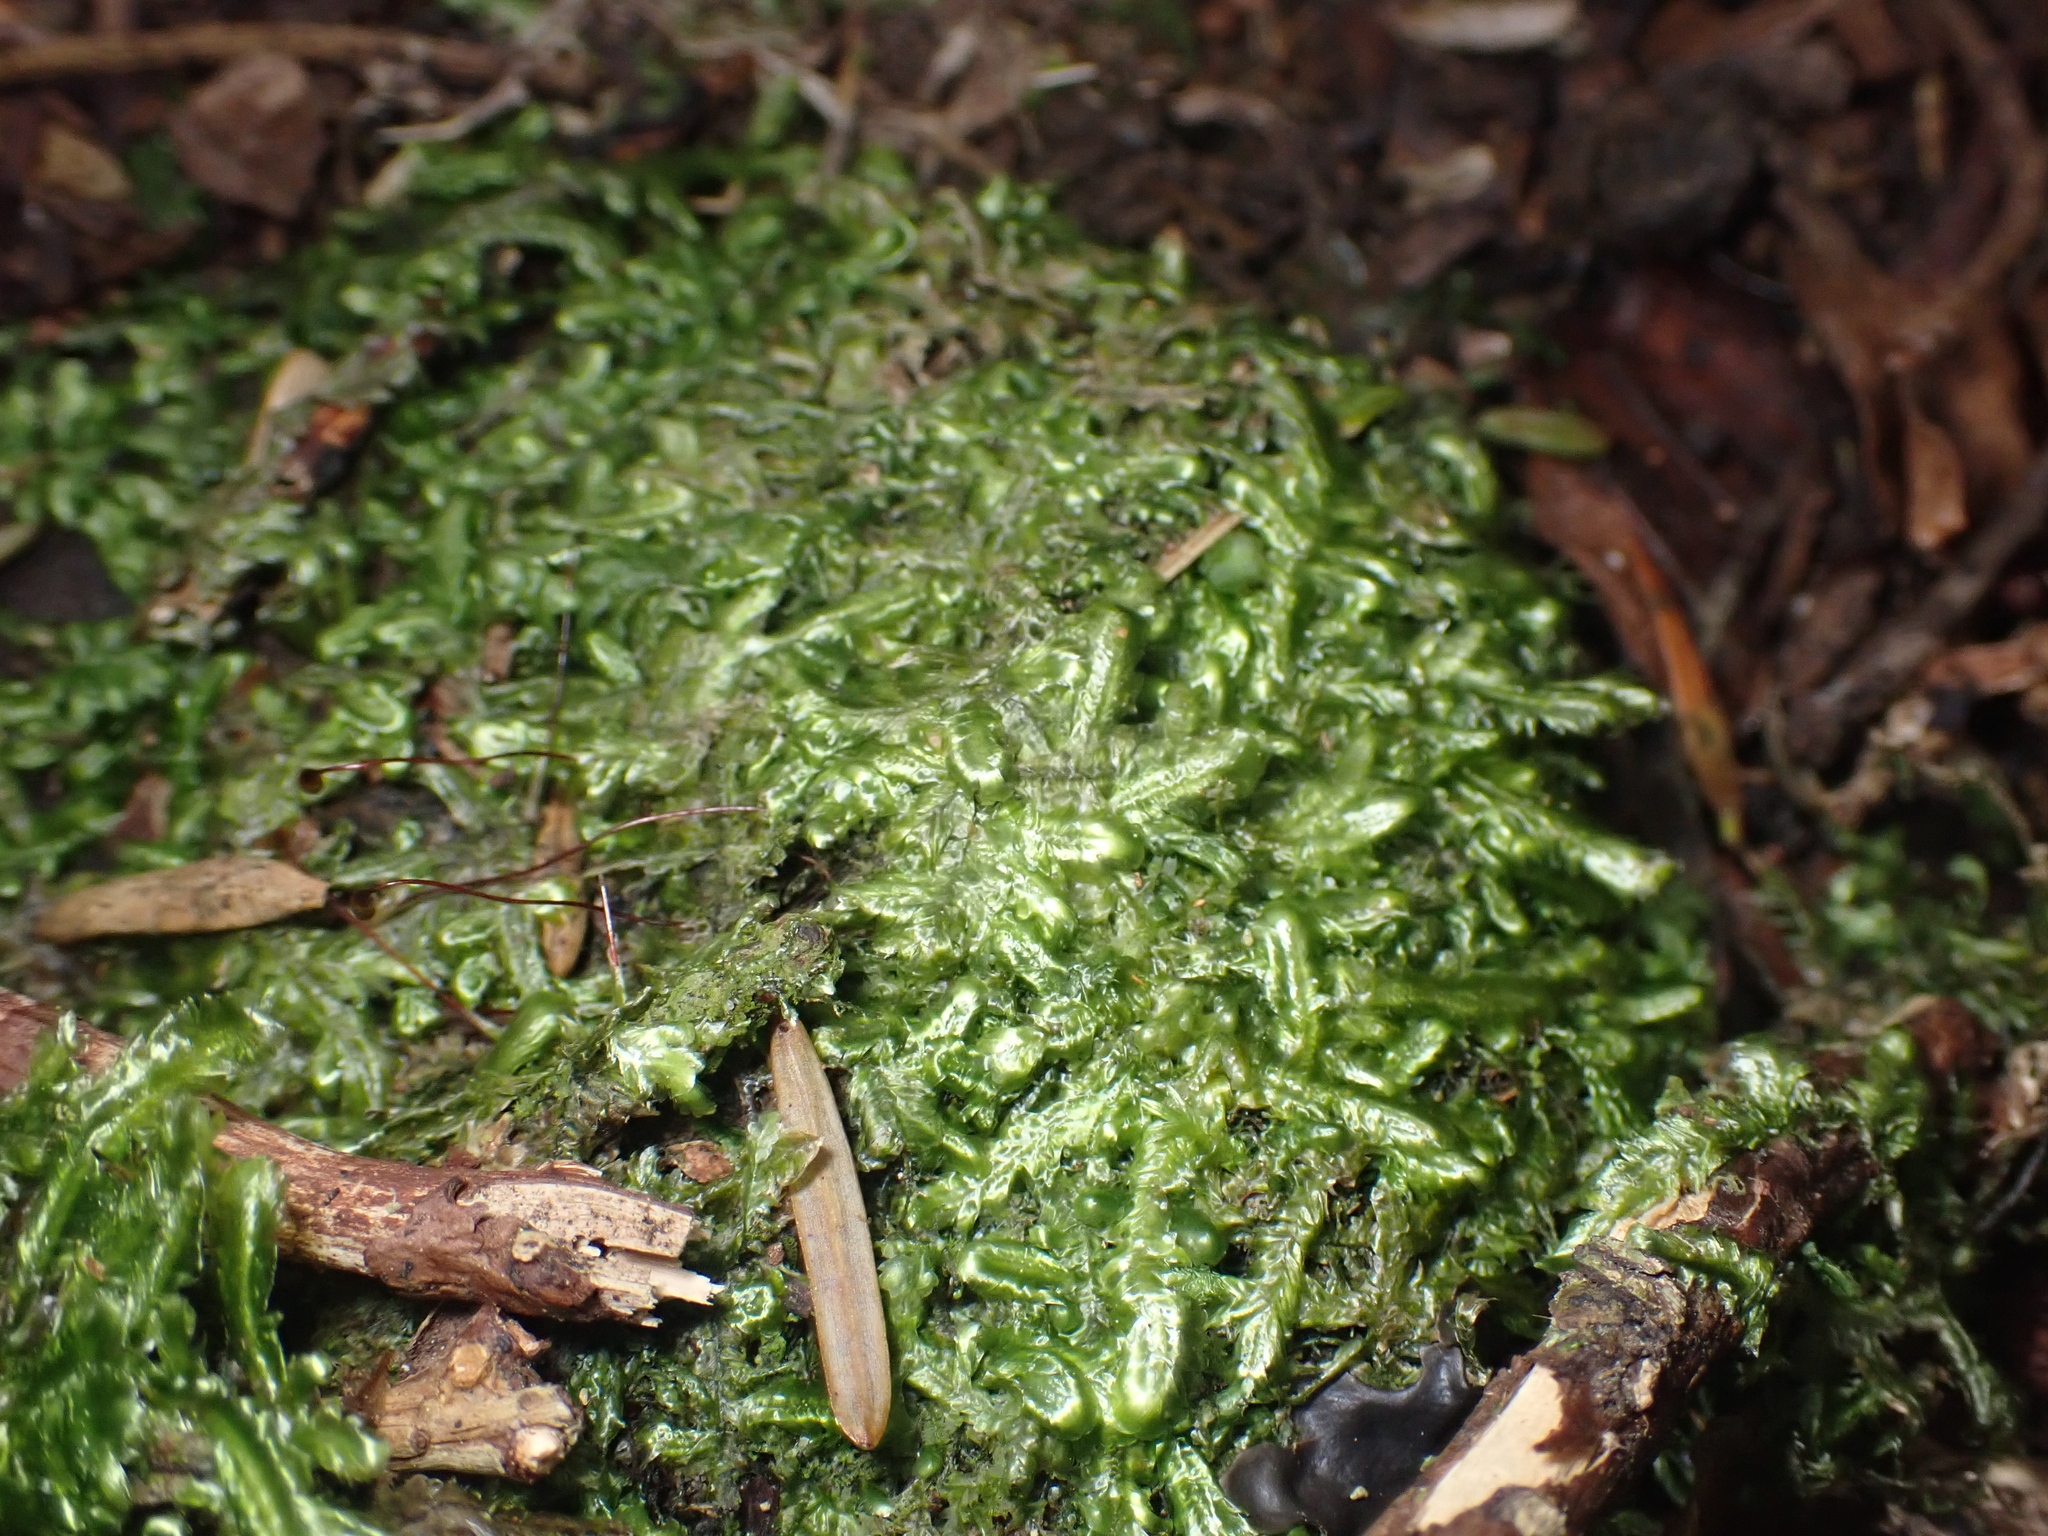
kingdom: Plantae
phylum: Bryophyta
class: Bryopsida
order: Hypnales
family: Lembophyllaceae
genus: Margrethypnum
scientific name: Margrethypnum falcifolium
